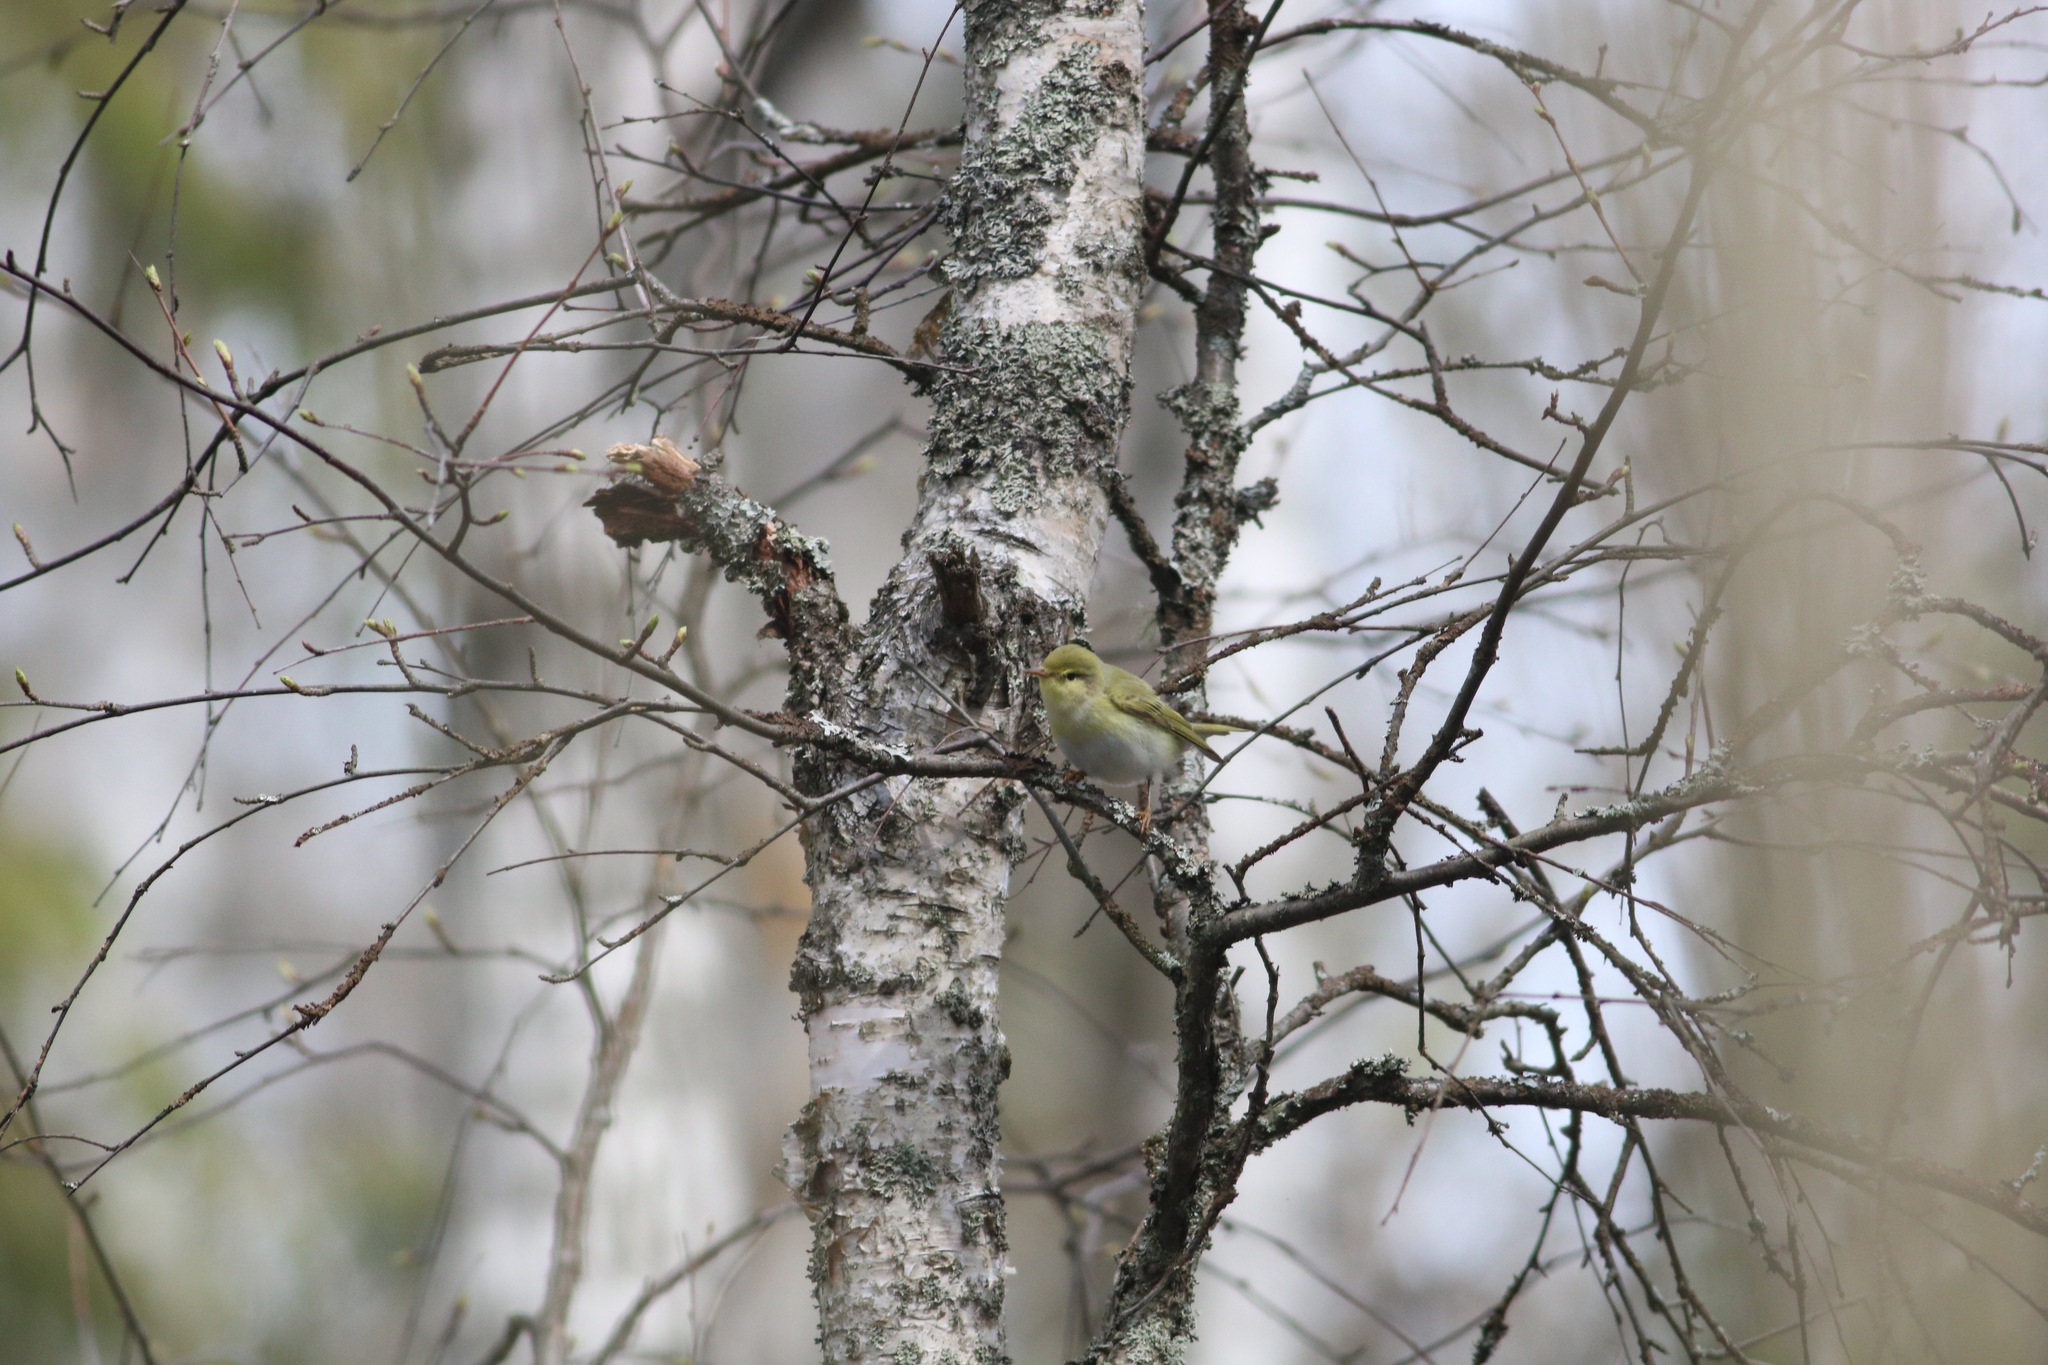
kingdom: Animalia
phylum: Chordata
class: Aves
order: Passeriformes
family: Phylloscopidae
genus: Phylloscopus
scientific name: Phylloscopus sibillatrix
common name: Wood warbler
